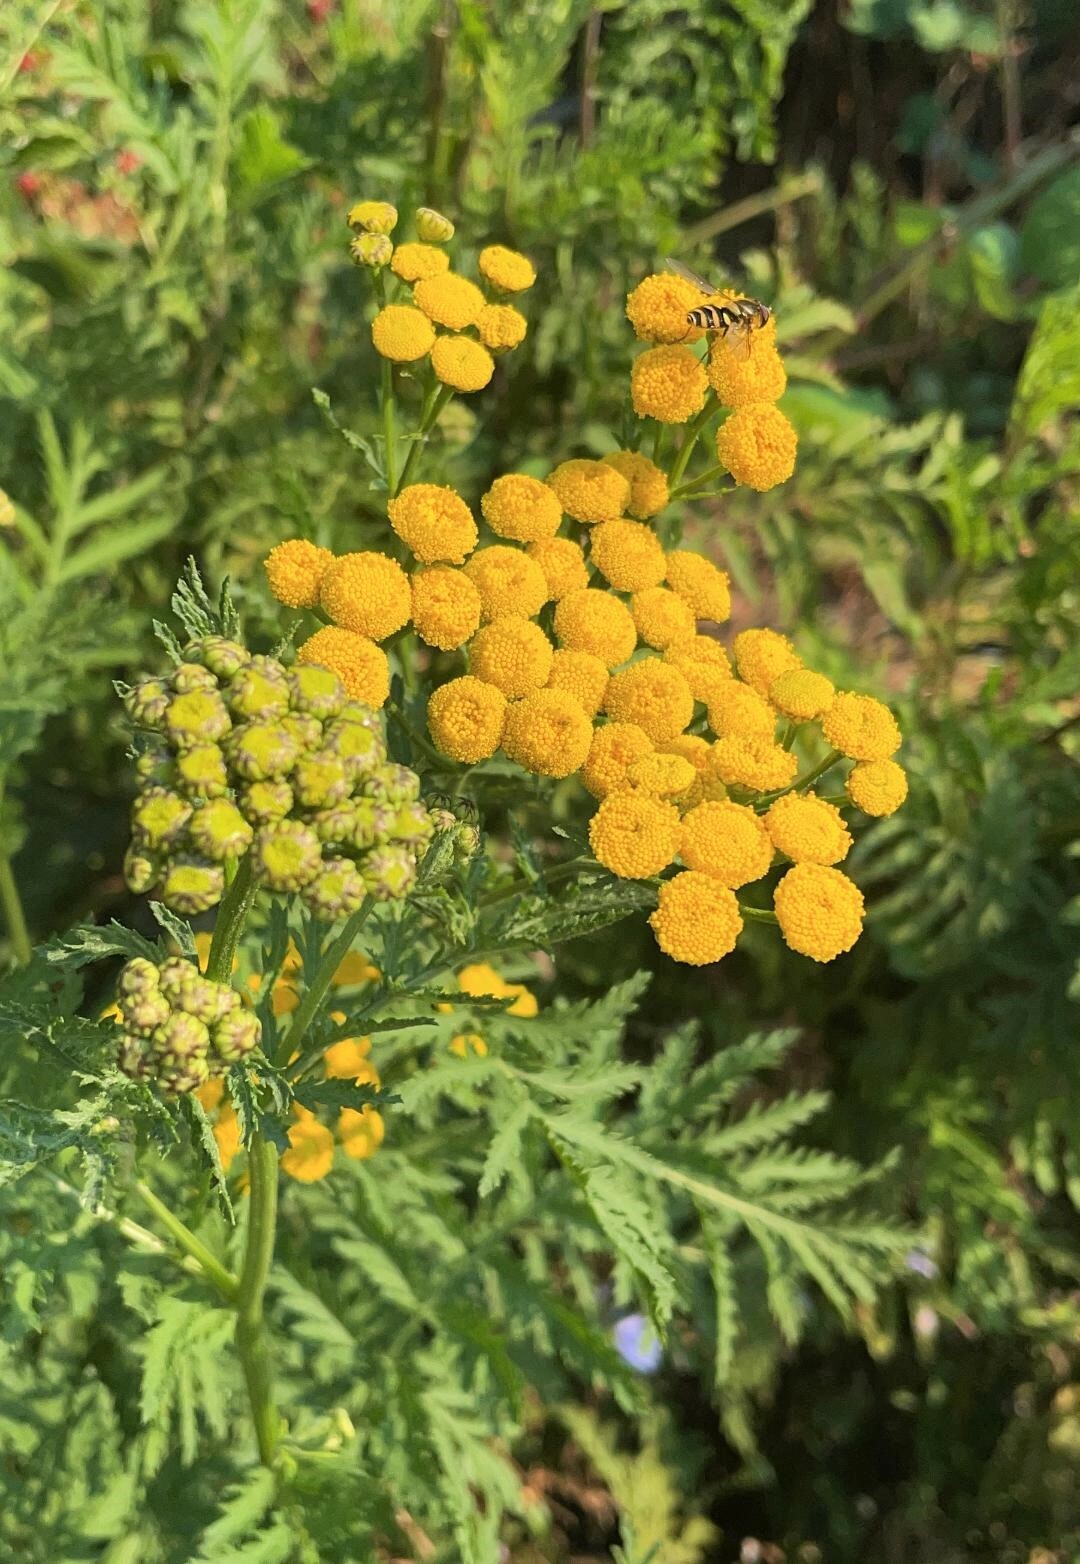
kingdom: Plantae
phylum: Tracheophyta
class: Magnoliopsida
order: Asterales
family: Asteraceae
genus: Tanacetum
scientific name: Tanacetum vulgare
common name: Common tansy
